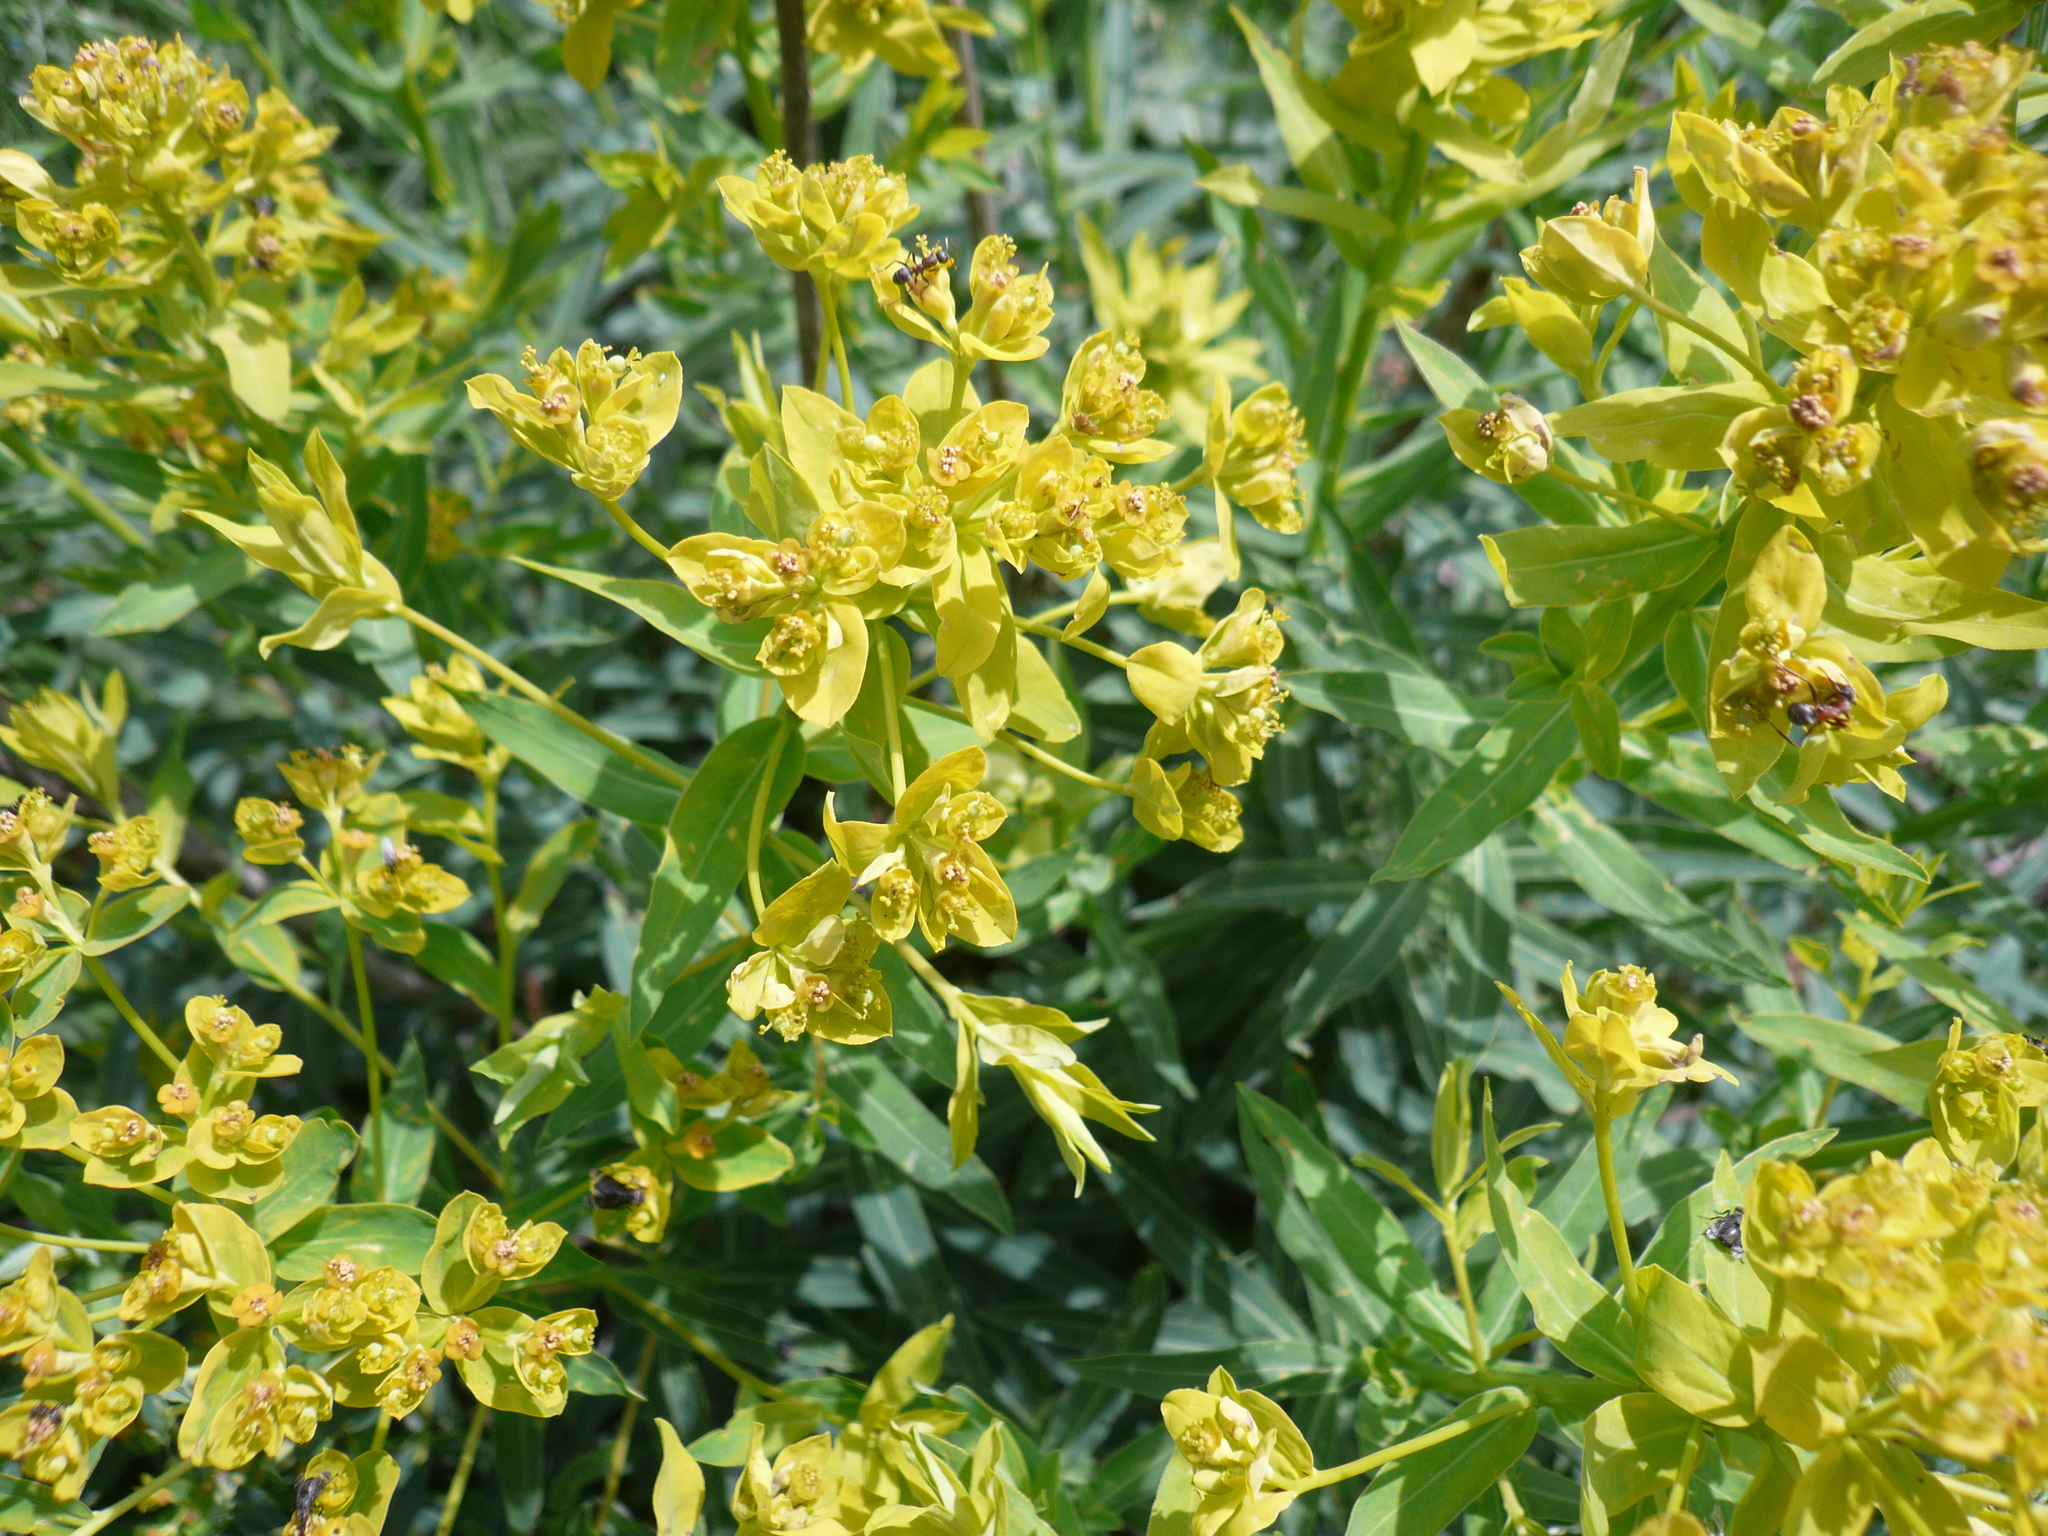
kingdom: Plantae
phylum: Tracheophyta
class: Magnoliopsida
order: Malpighiales
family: Euphorbiaceae
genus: Euphorbia
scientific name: Euphorbia semivillosa
